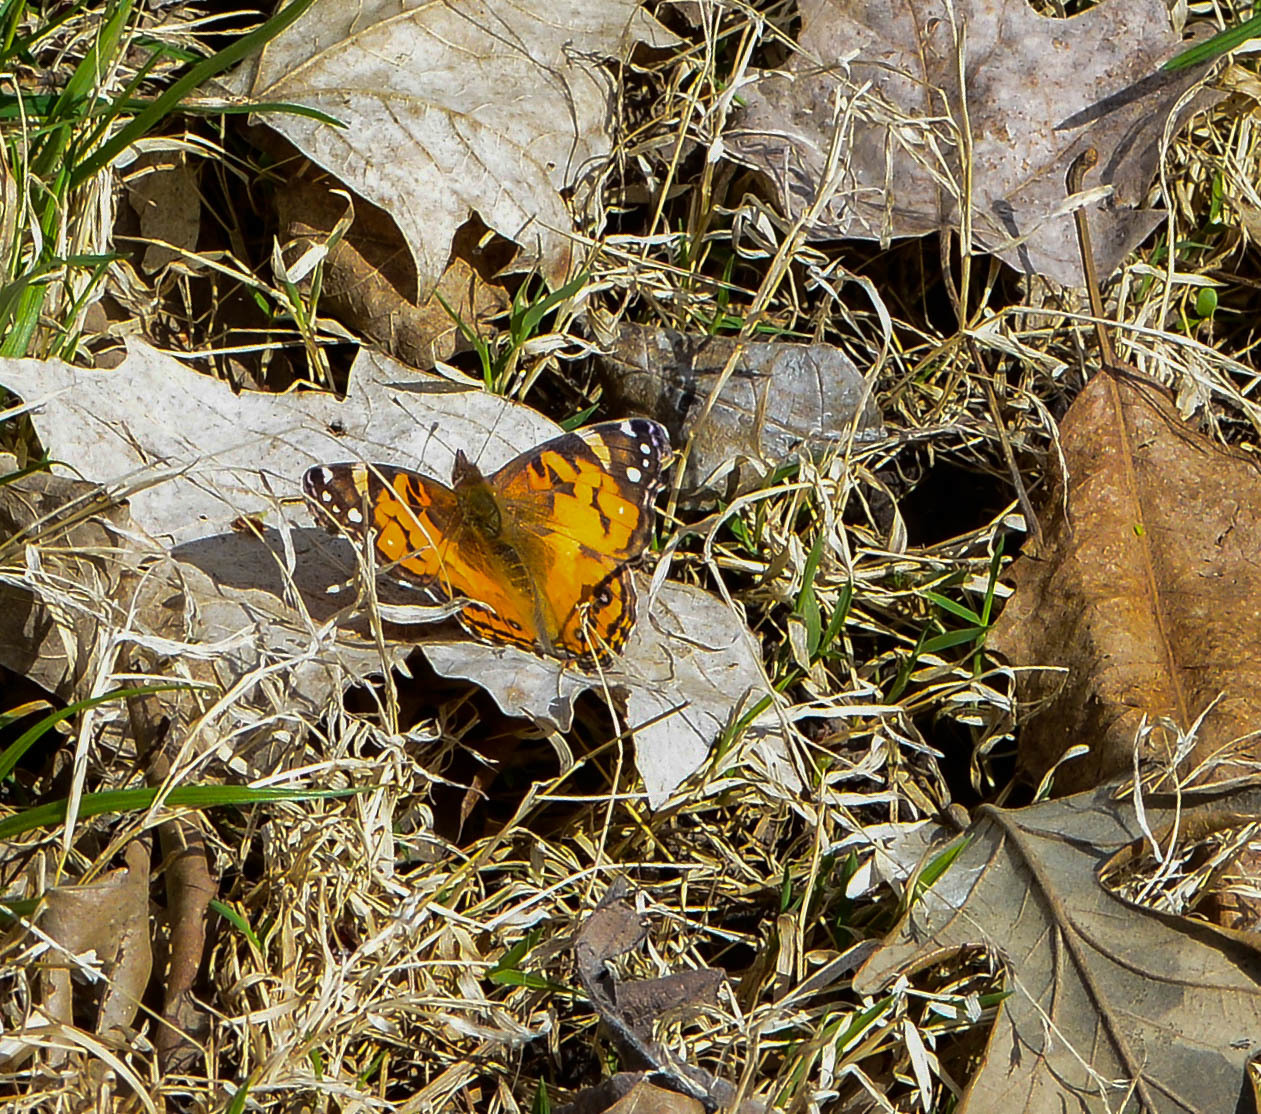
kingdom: Animalia
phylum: Arthropoda
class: Insecta
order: Lepidoptera
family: Nymphalidae
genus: Vanessa
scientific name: Vanessa virginiensis
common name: American lady
